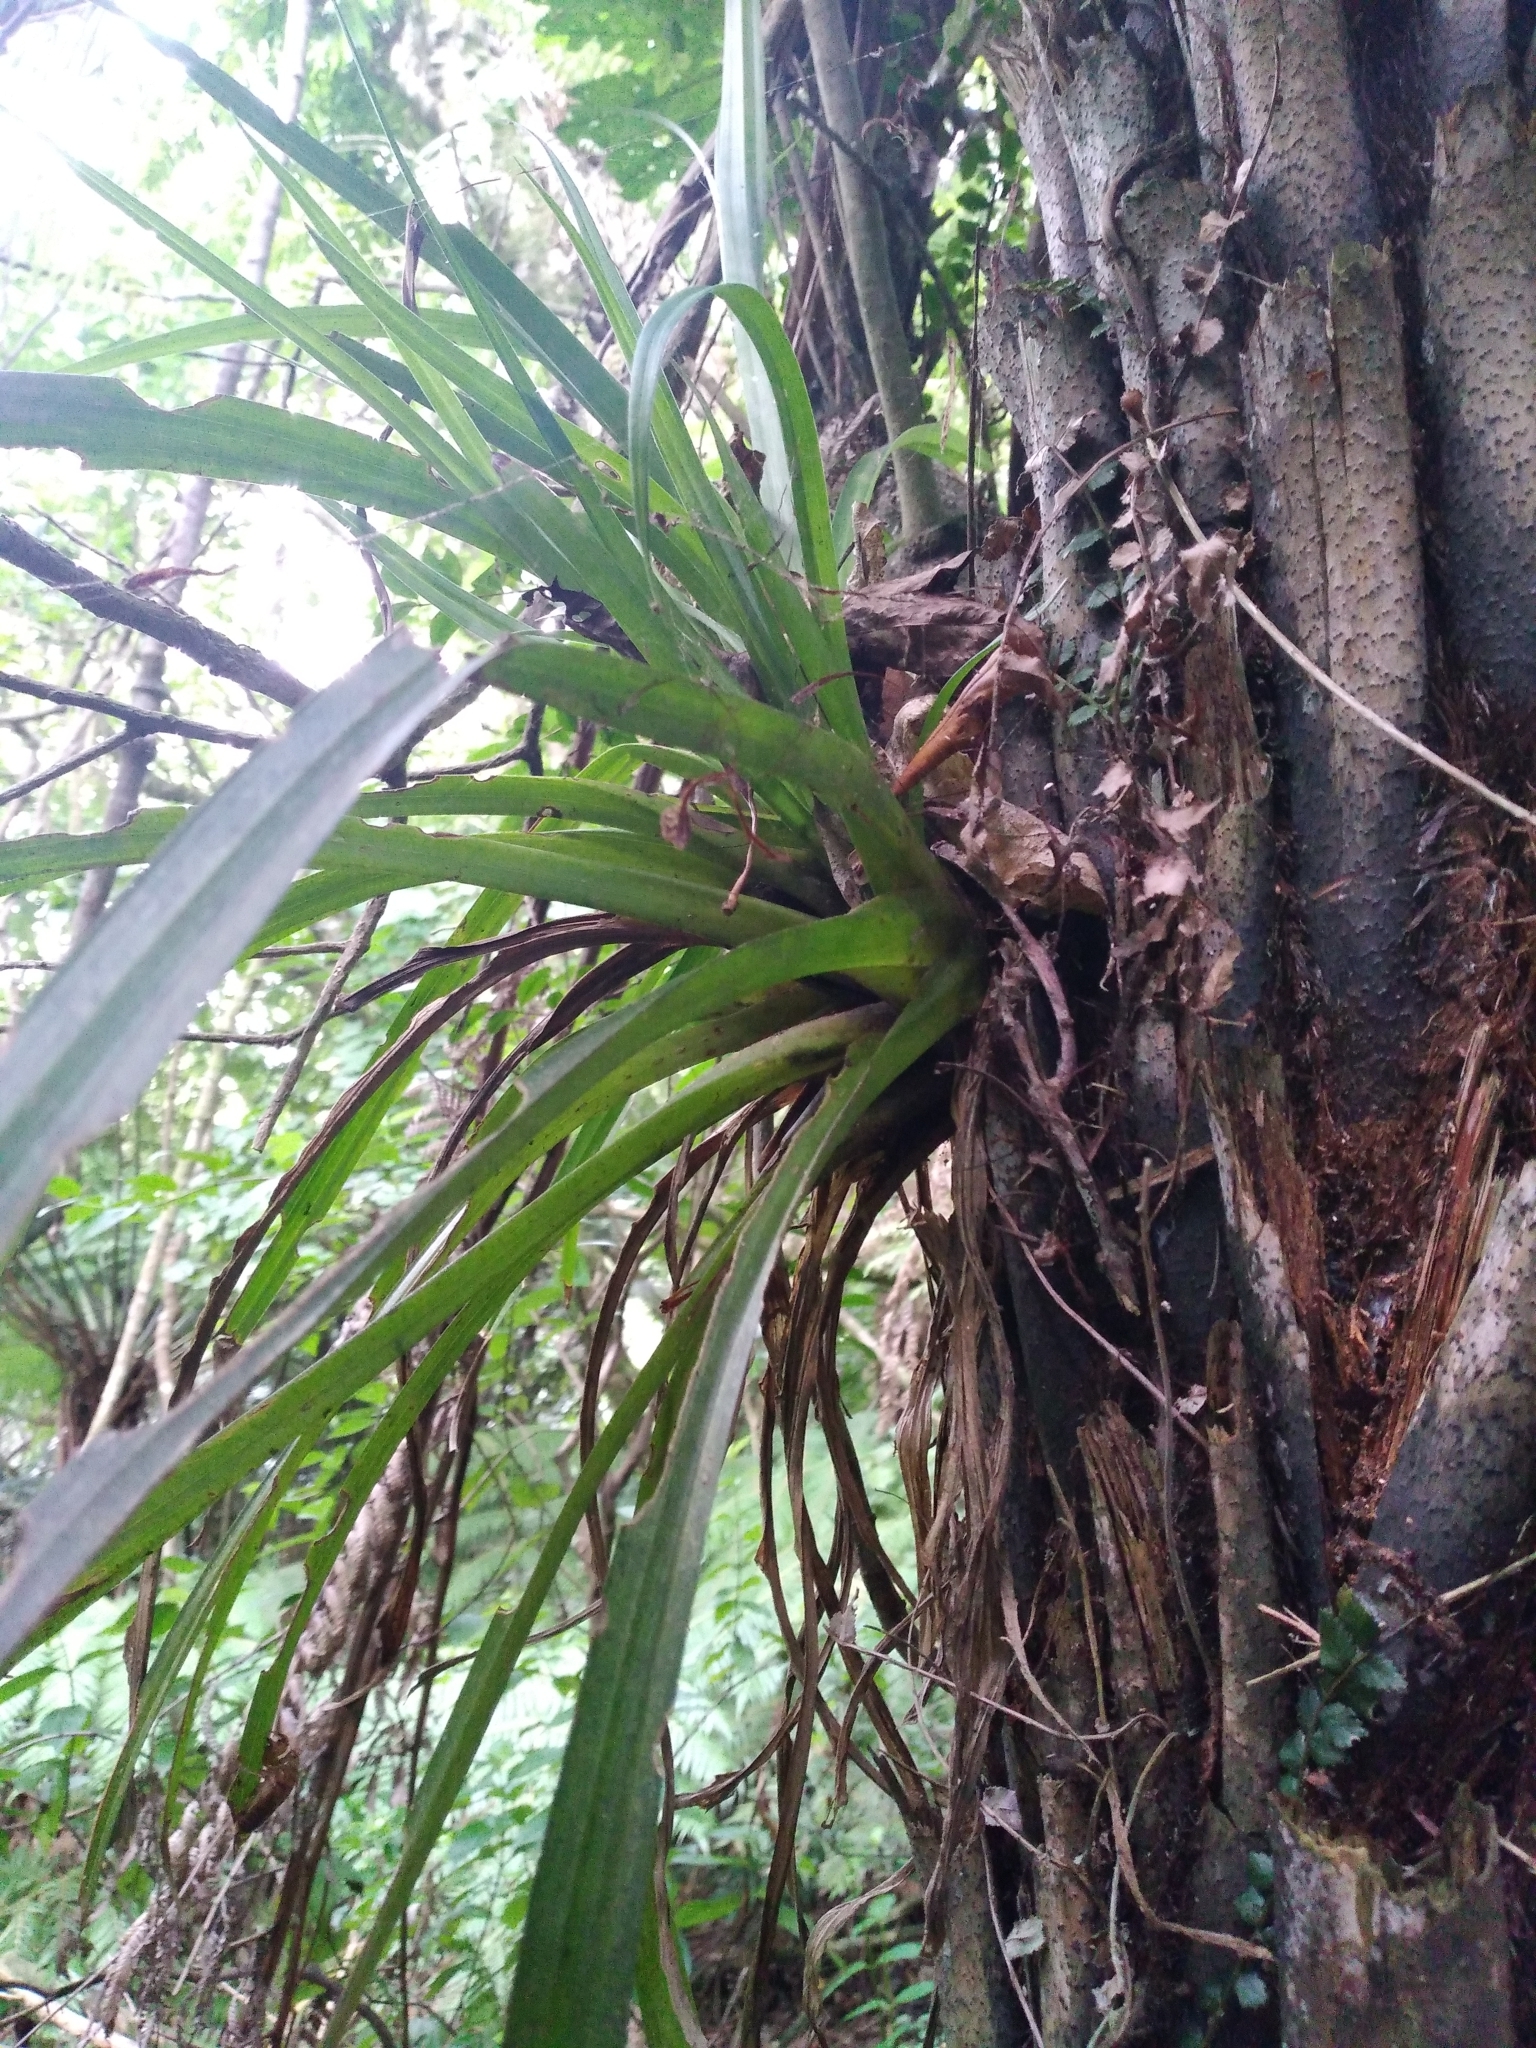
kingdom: Plantae
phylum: Tracheophyta
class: Liliopsida
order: Asparagales
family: Asteliaceae
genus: Astelia
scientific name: Astelia hastata
